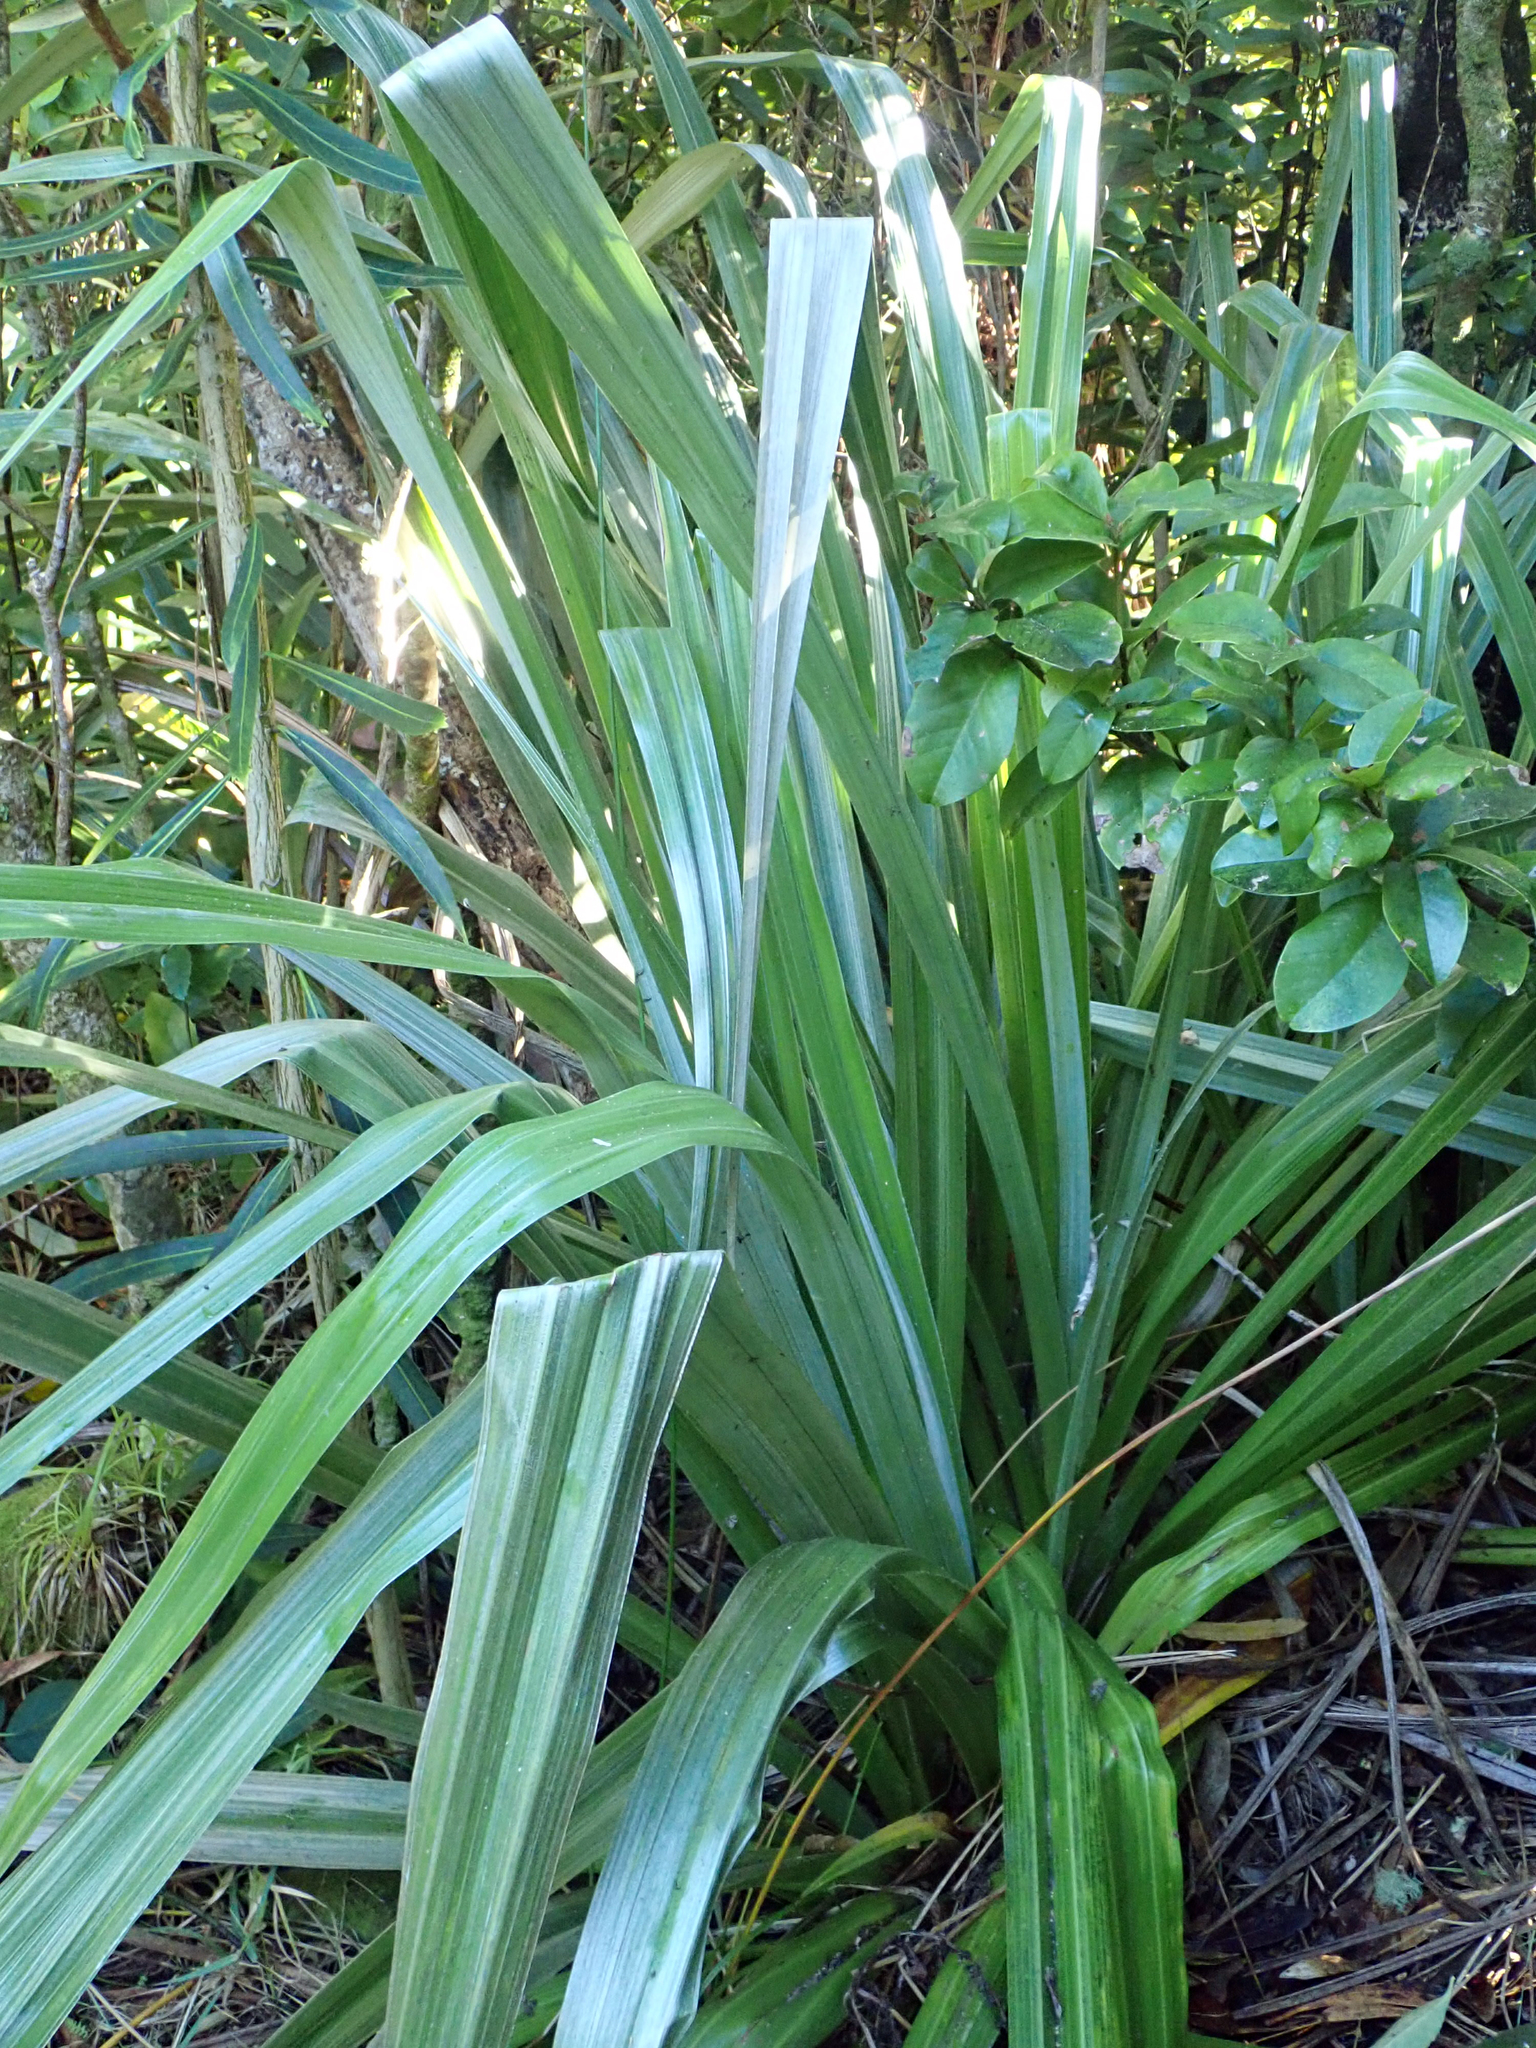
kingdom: Plantae
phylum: Tracheophyta
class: Liliopsida
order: Asparagales
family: Asteliaceae
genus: Astelia
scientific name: Astelia chathamica
